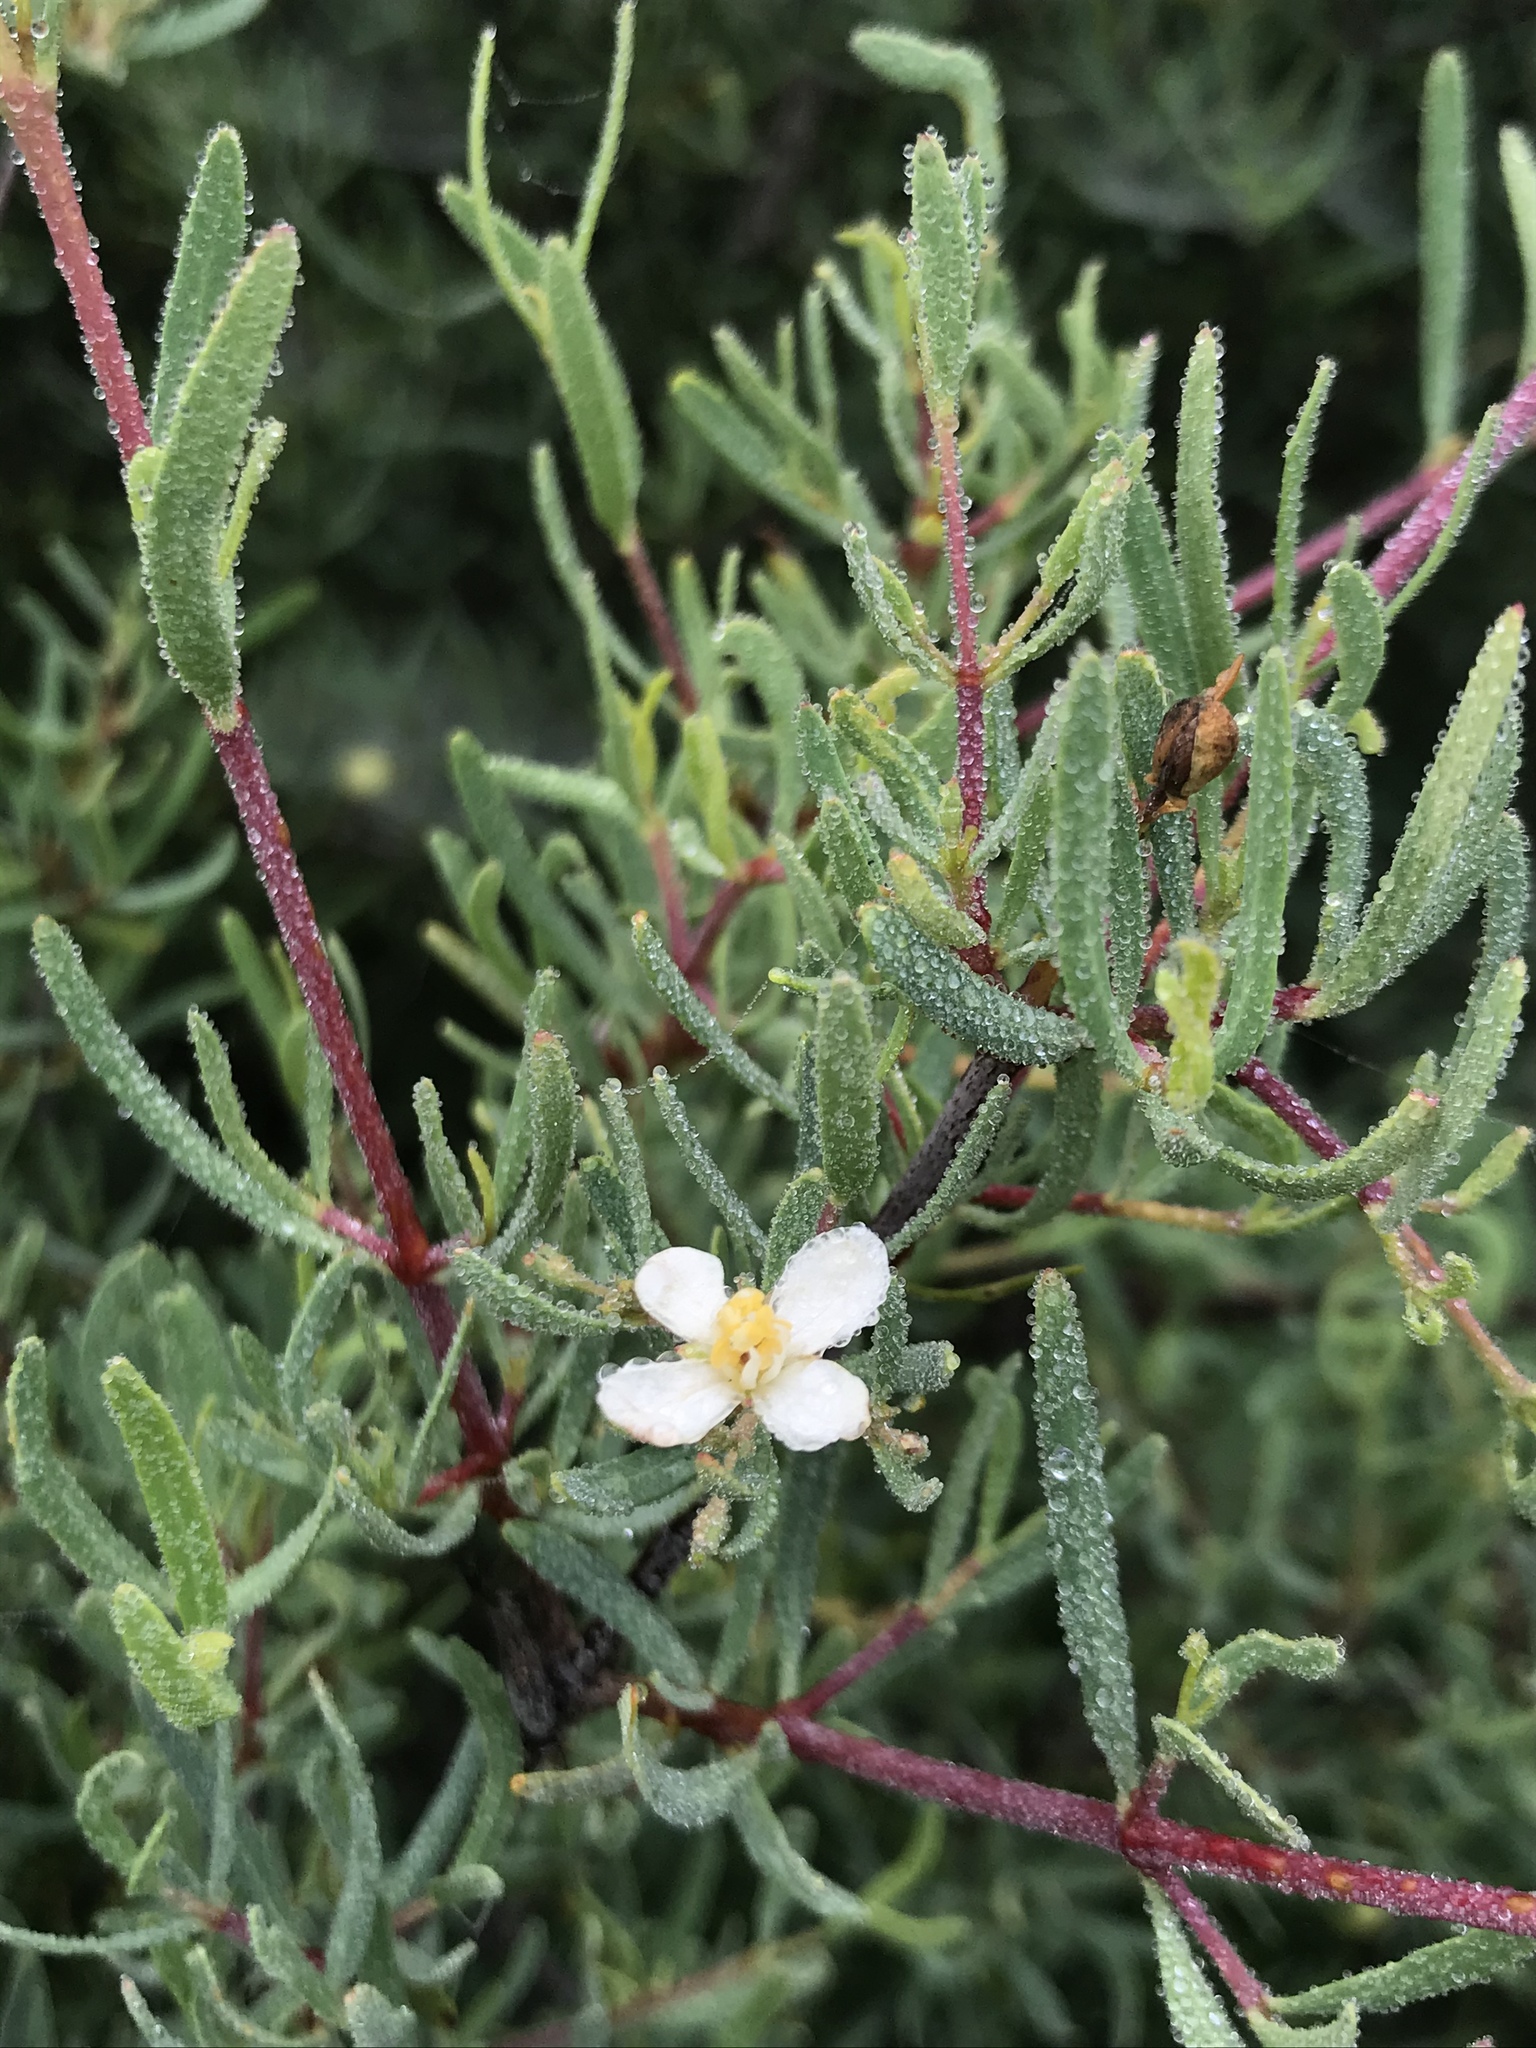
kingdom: Plantae
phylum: Tracheophyta
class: Magnoliopsida
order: Sapindales
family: Rutaceae
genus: Cneoridium
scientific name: Cneoridium dumosum
